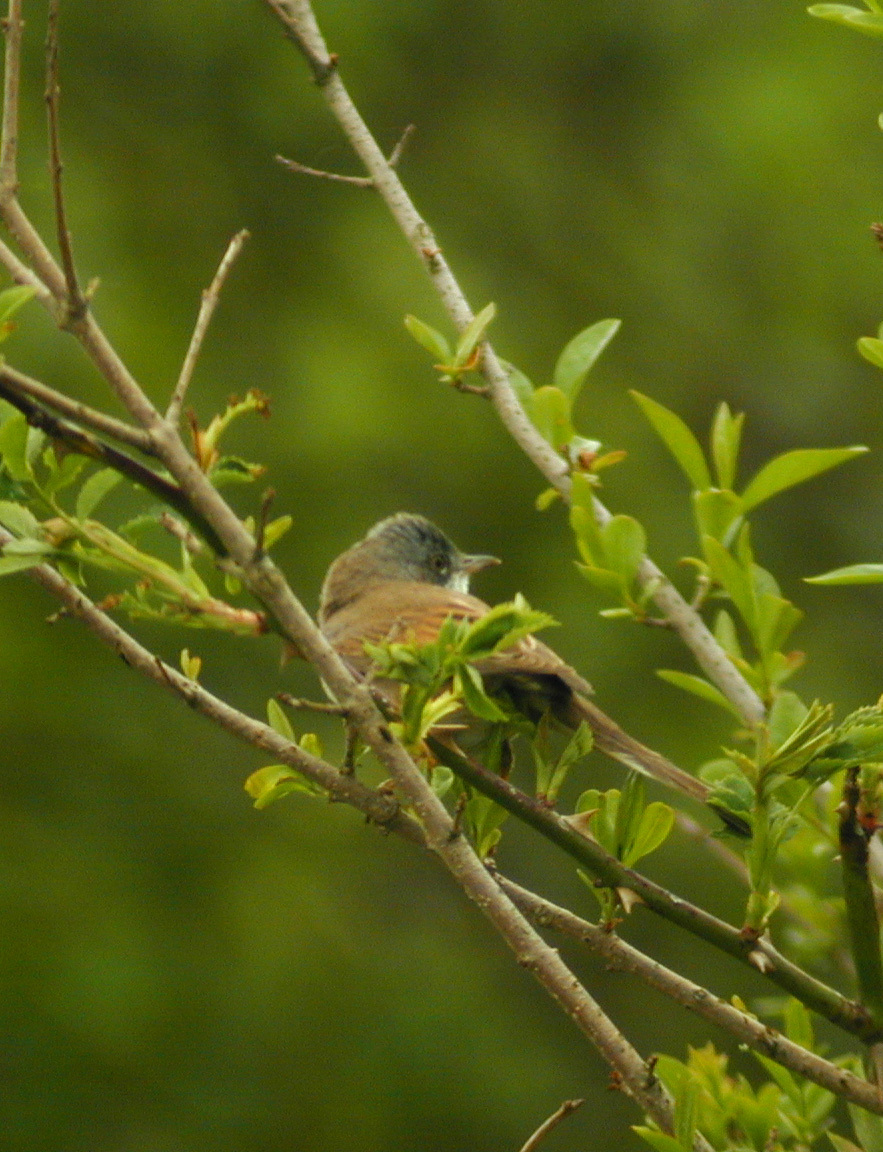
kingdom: Animalia
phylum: Chordata
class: Aves
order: Passeriformes
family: Sylviidae
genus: Sylvia
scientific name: Sylvia communis
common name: Common whitethroat
